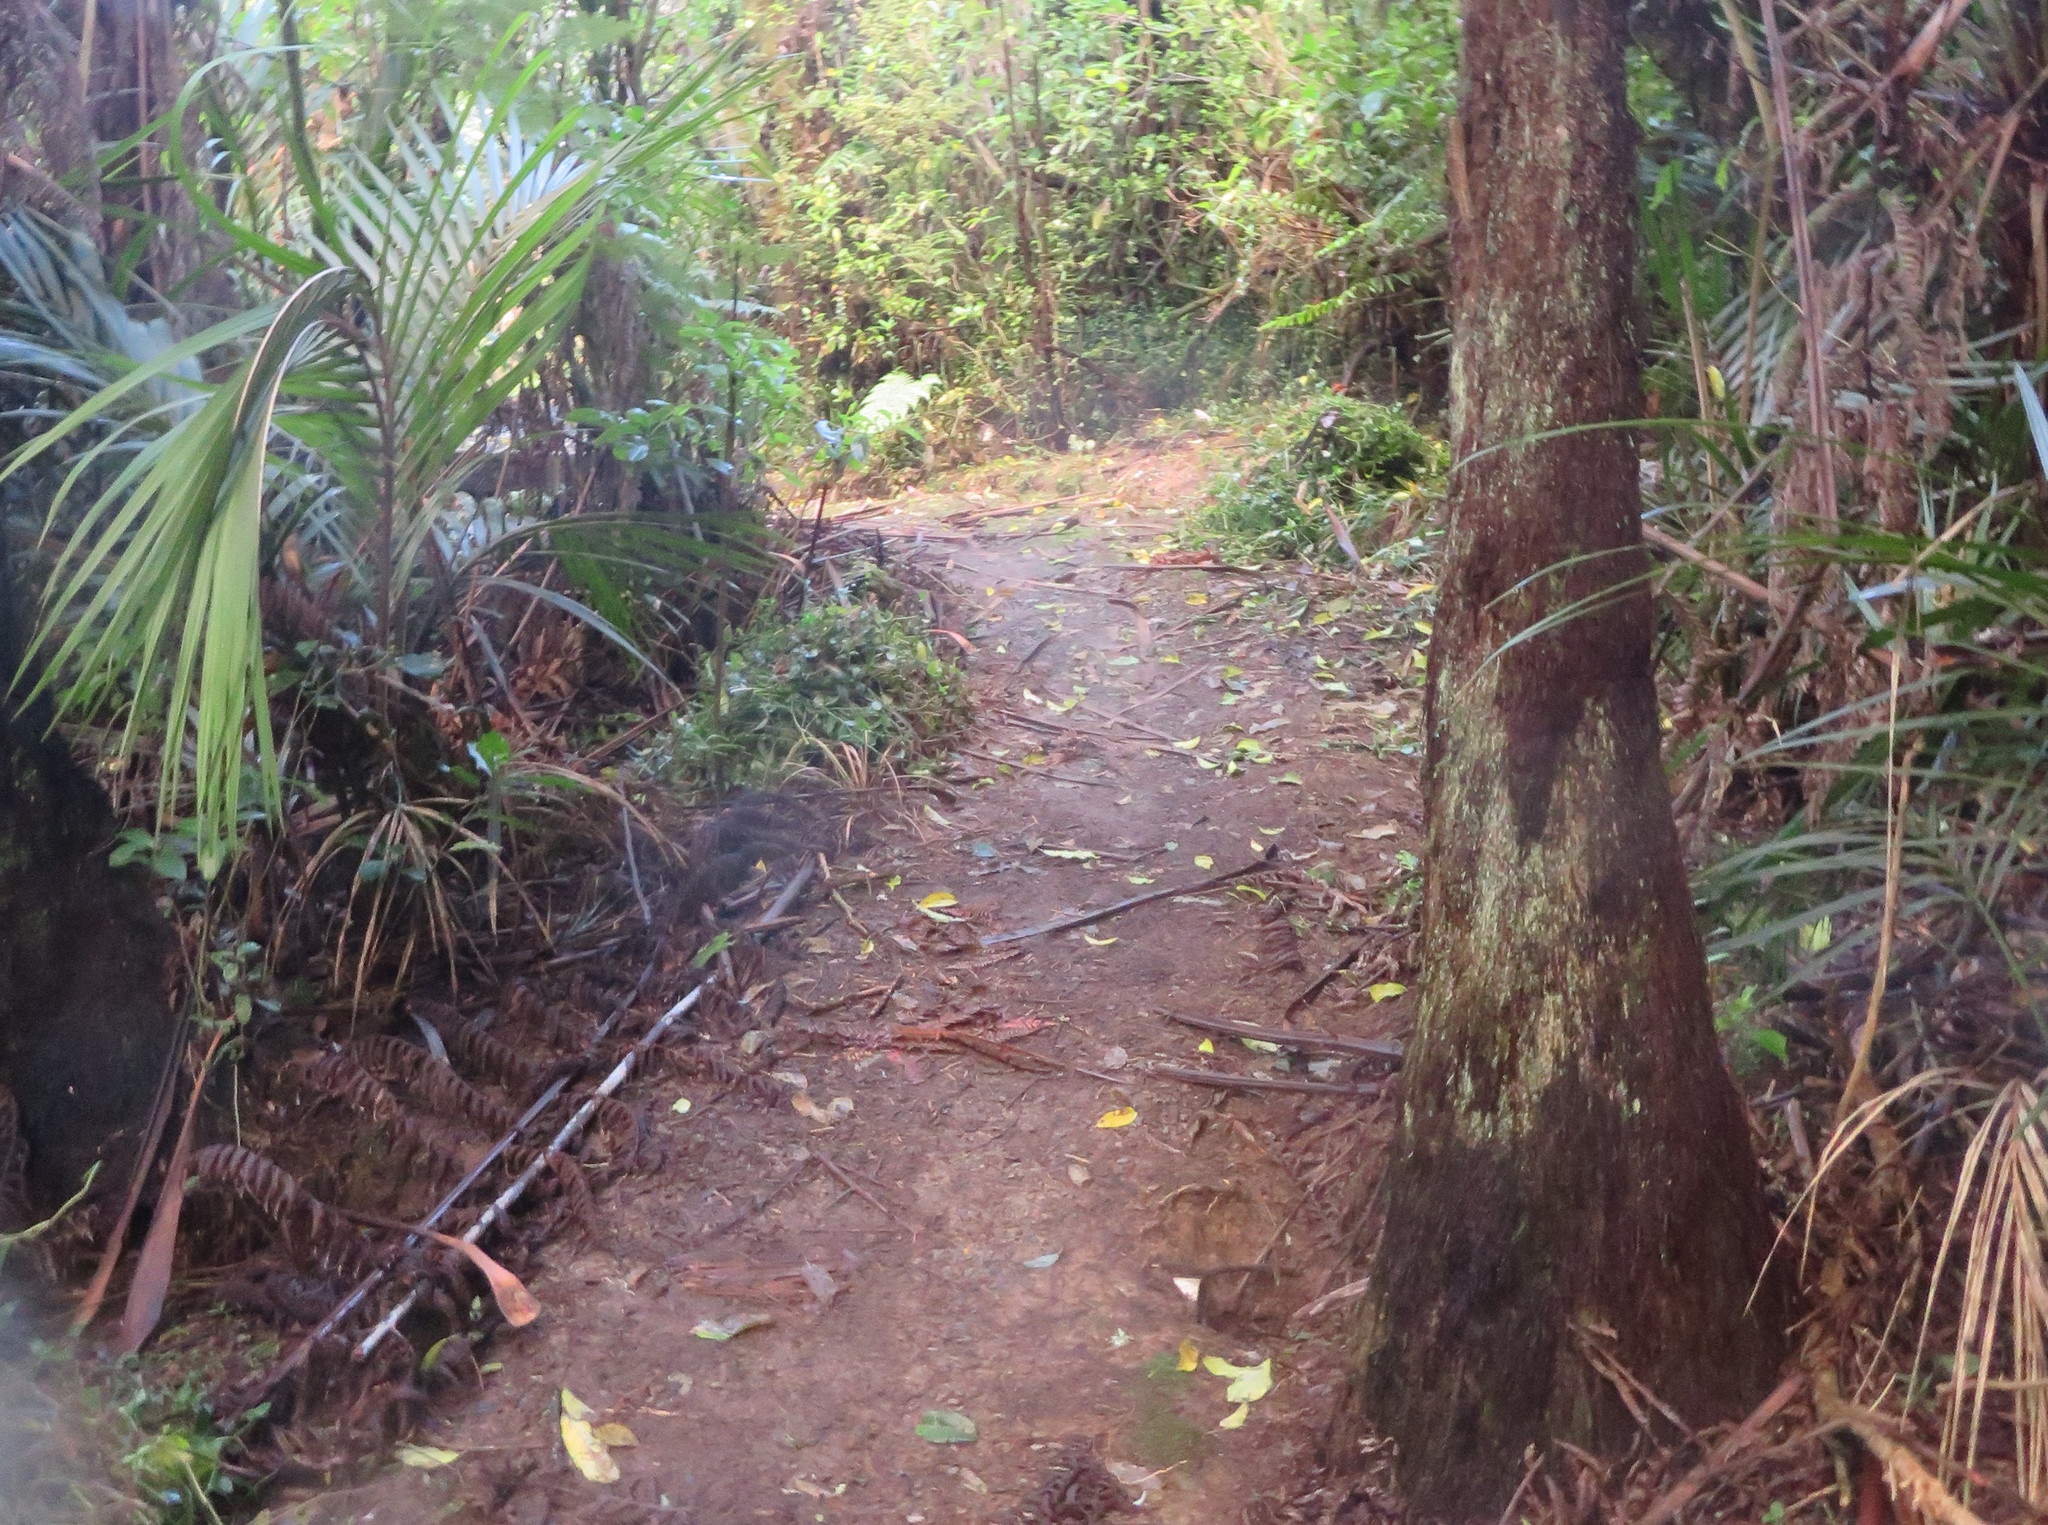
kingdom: Plantae
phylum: Tracheophyta
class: Liliopsida
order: Commelinales
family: Commelinaceae
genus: Tradescantia
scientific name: Tradescantia fluminensis
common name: Wandering-jew
